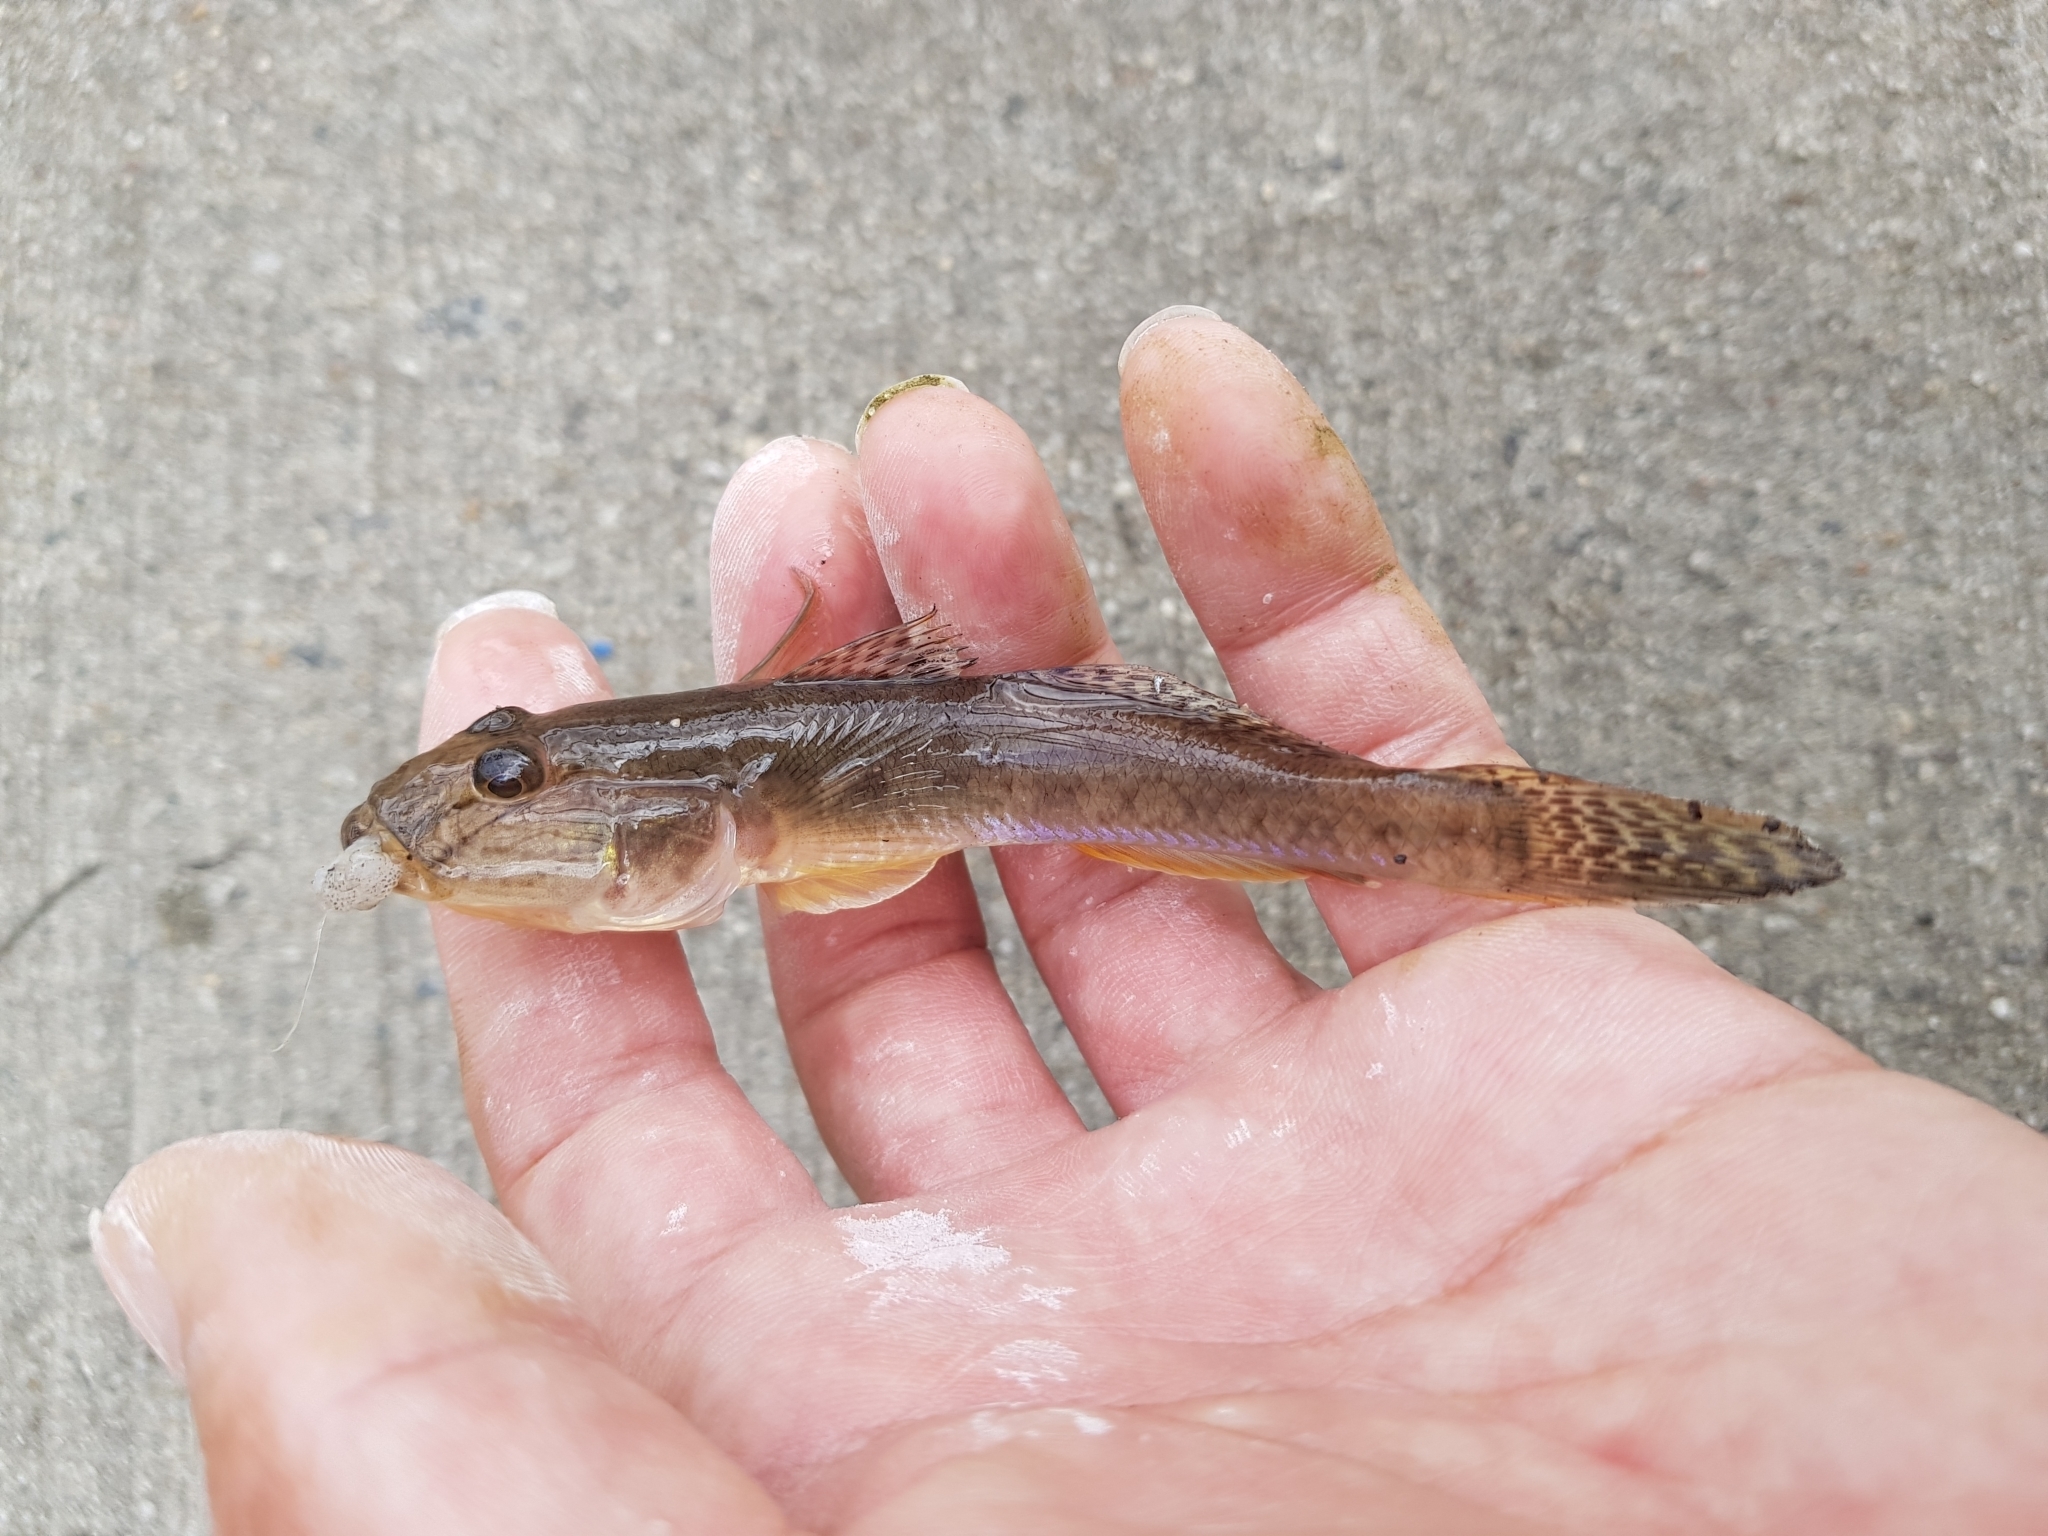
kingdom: Animalia
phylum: Chordata
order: Perciformes
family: Gobiidae
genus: Acanthogobius
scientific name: Acanthogobius flavimanus
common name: Yellowfin goby
